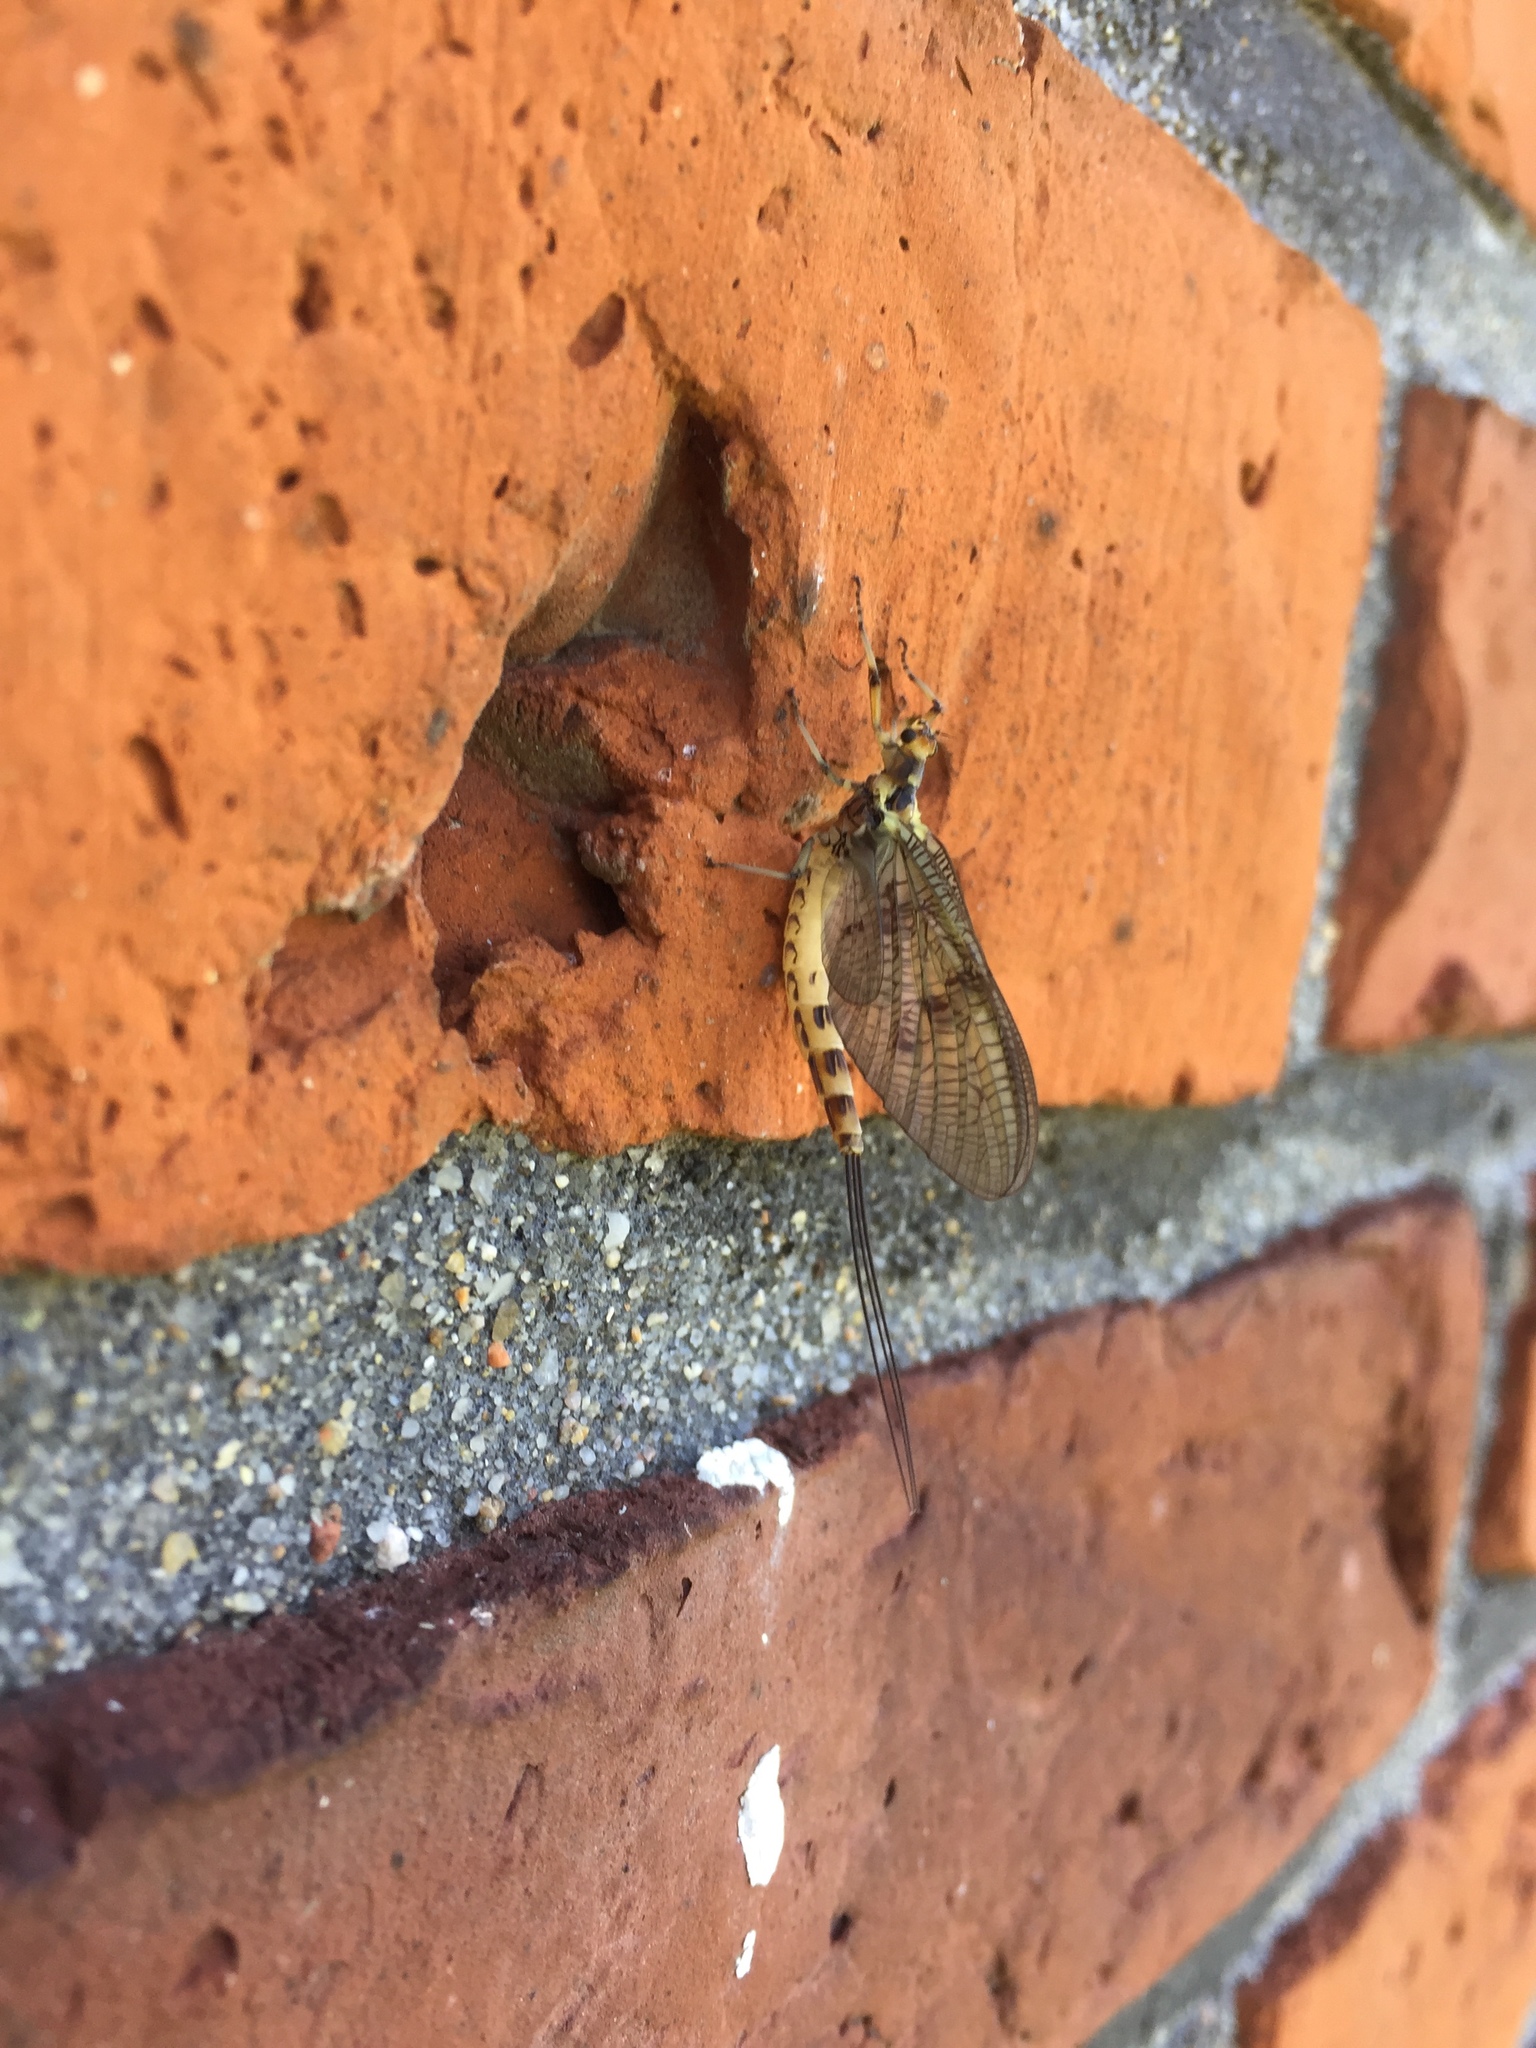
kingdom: Animalia
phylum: Arthropoda
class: Insecta
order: Ephemeroptera
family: Ephemeridae
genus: Ephemera
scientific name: Ephemera danica
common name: Green dun
